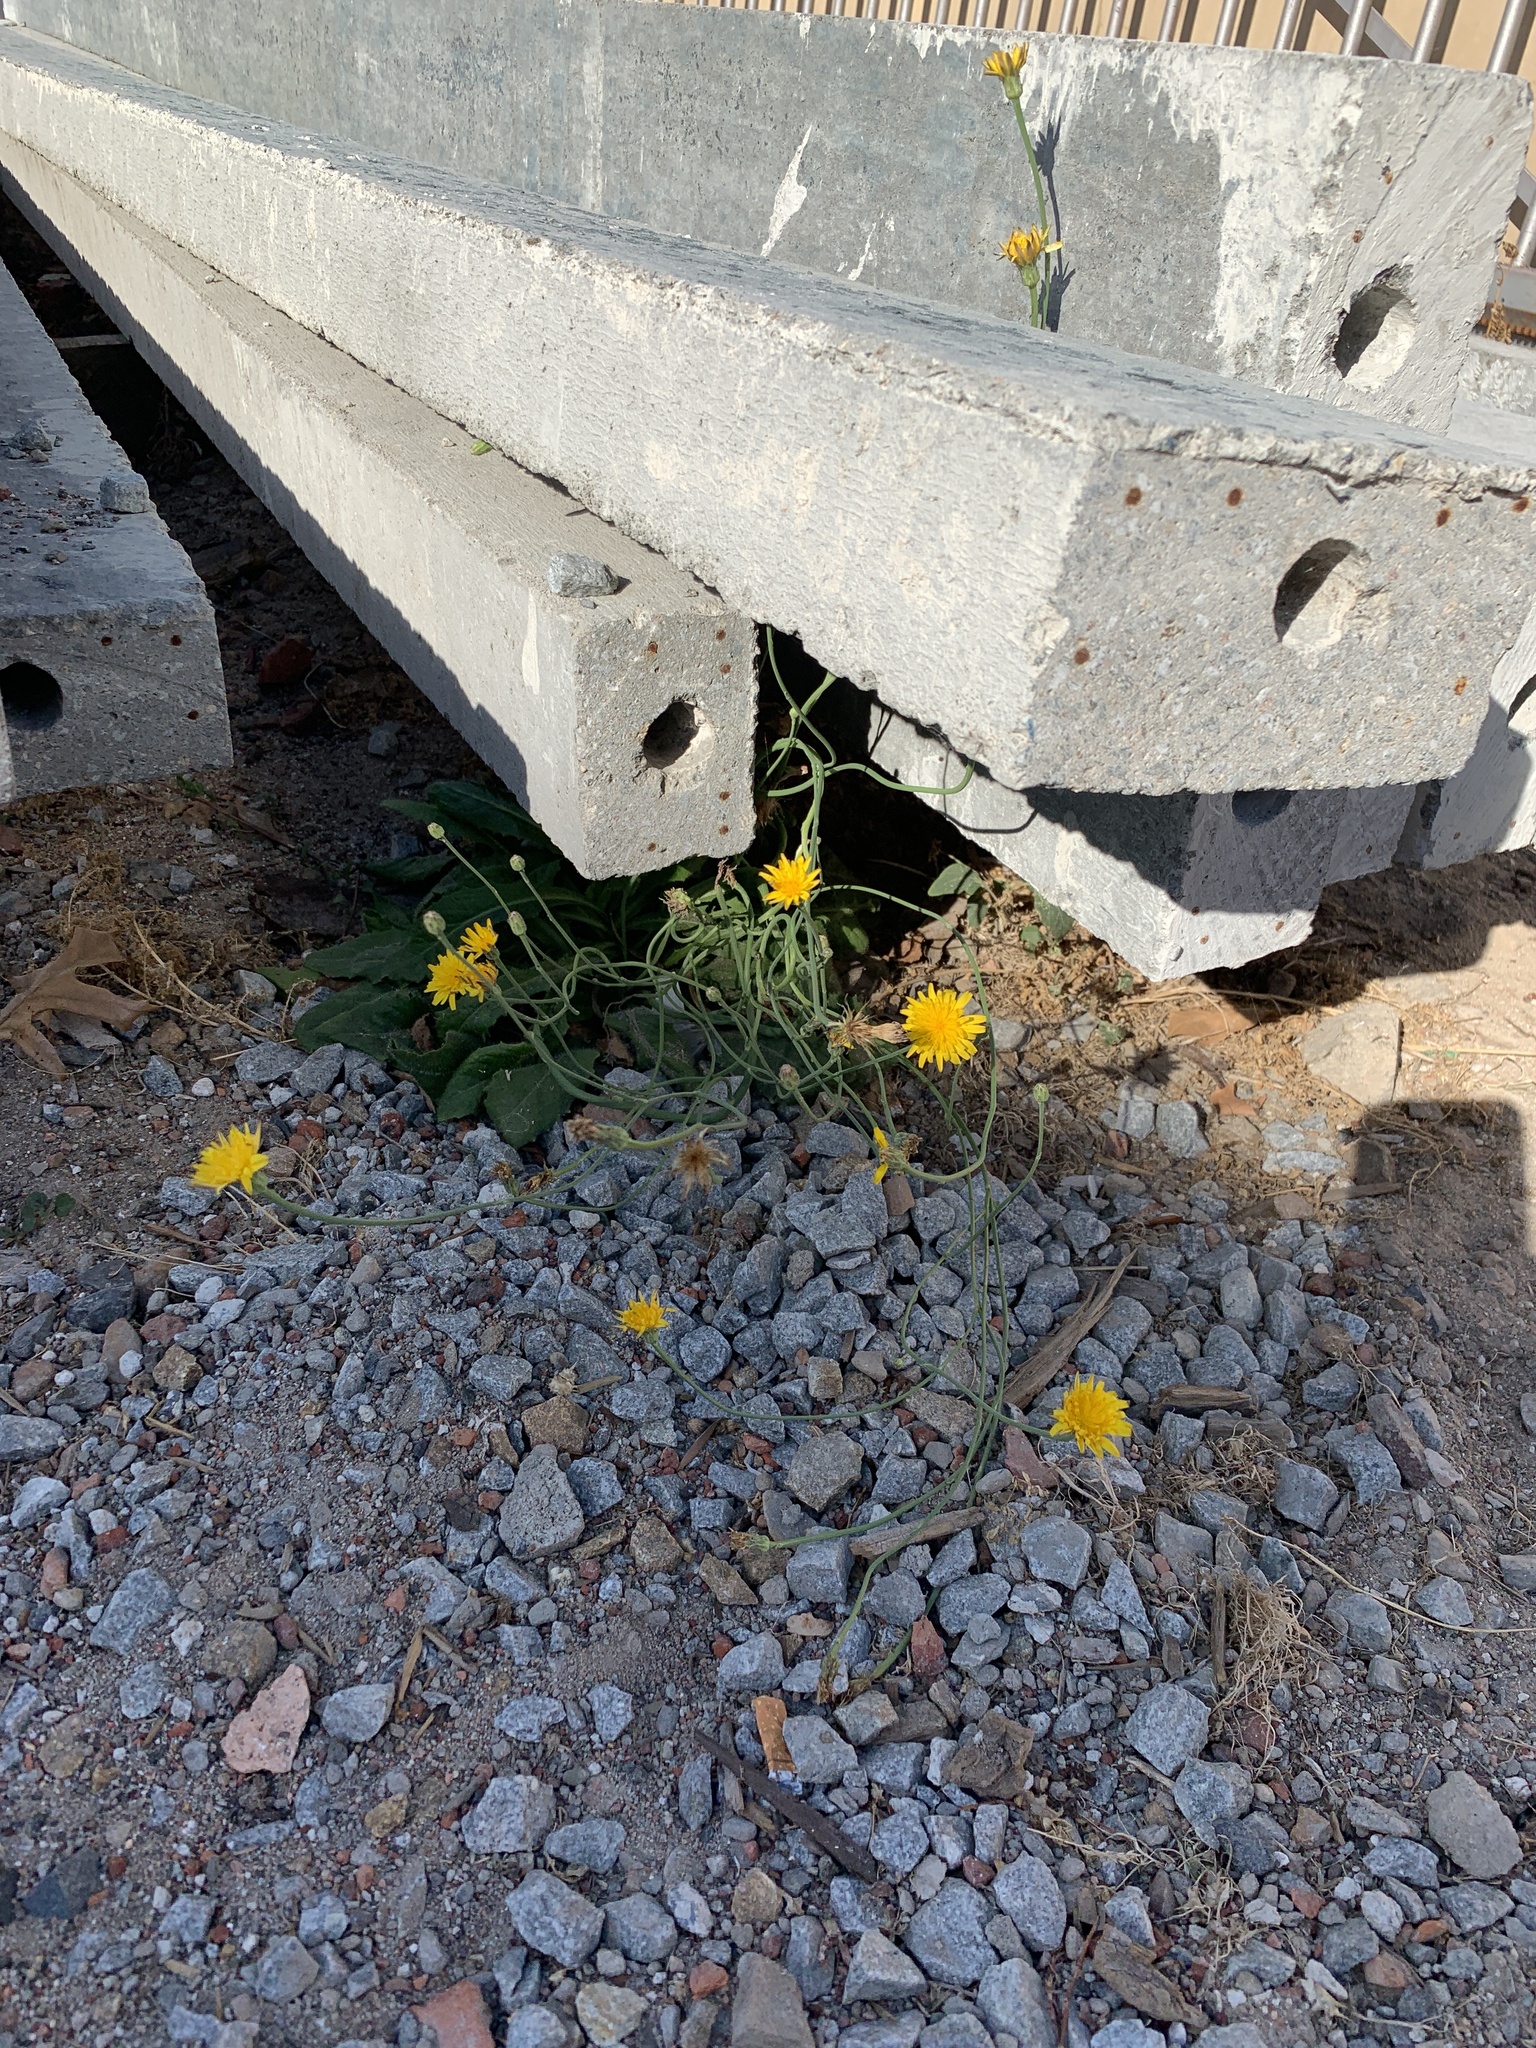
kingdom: Plantae
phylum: Tracheophyta
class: Magnoliopsida
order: Asterales
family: Asteraceae
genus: Hypochaeris
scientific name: Hypochaeris radicata
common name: Flatweed
